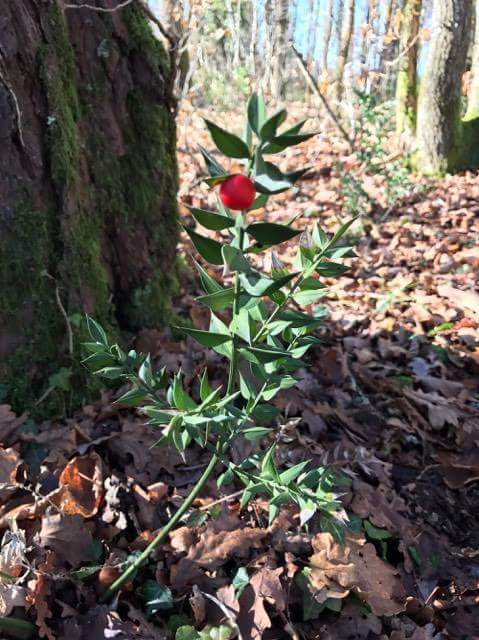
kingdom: Plantae
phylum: Tracheophyta
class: Liliopsida
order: Asparagales
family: Asparagaceae
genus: Ruscus
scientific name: Ruscus aculeatus
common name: Butcher's-broom
